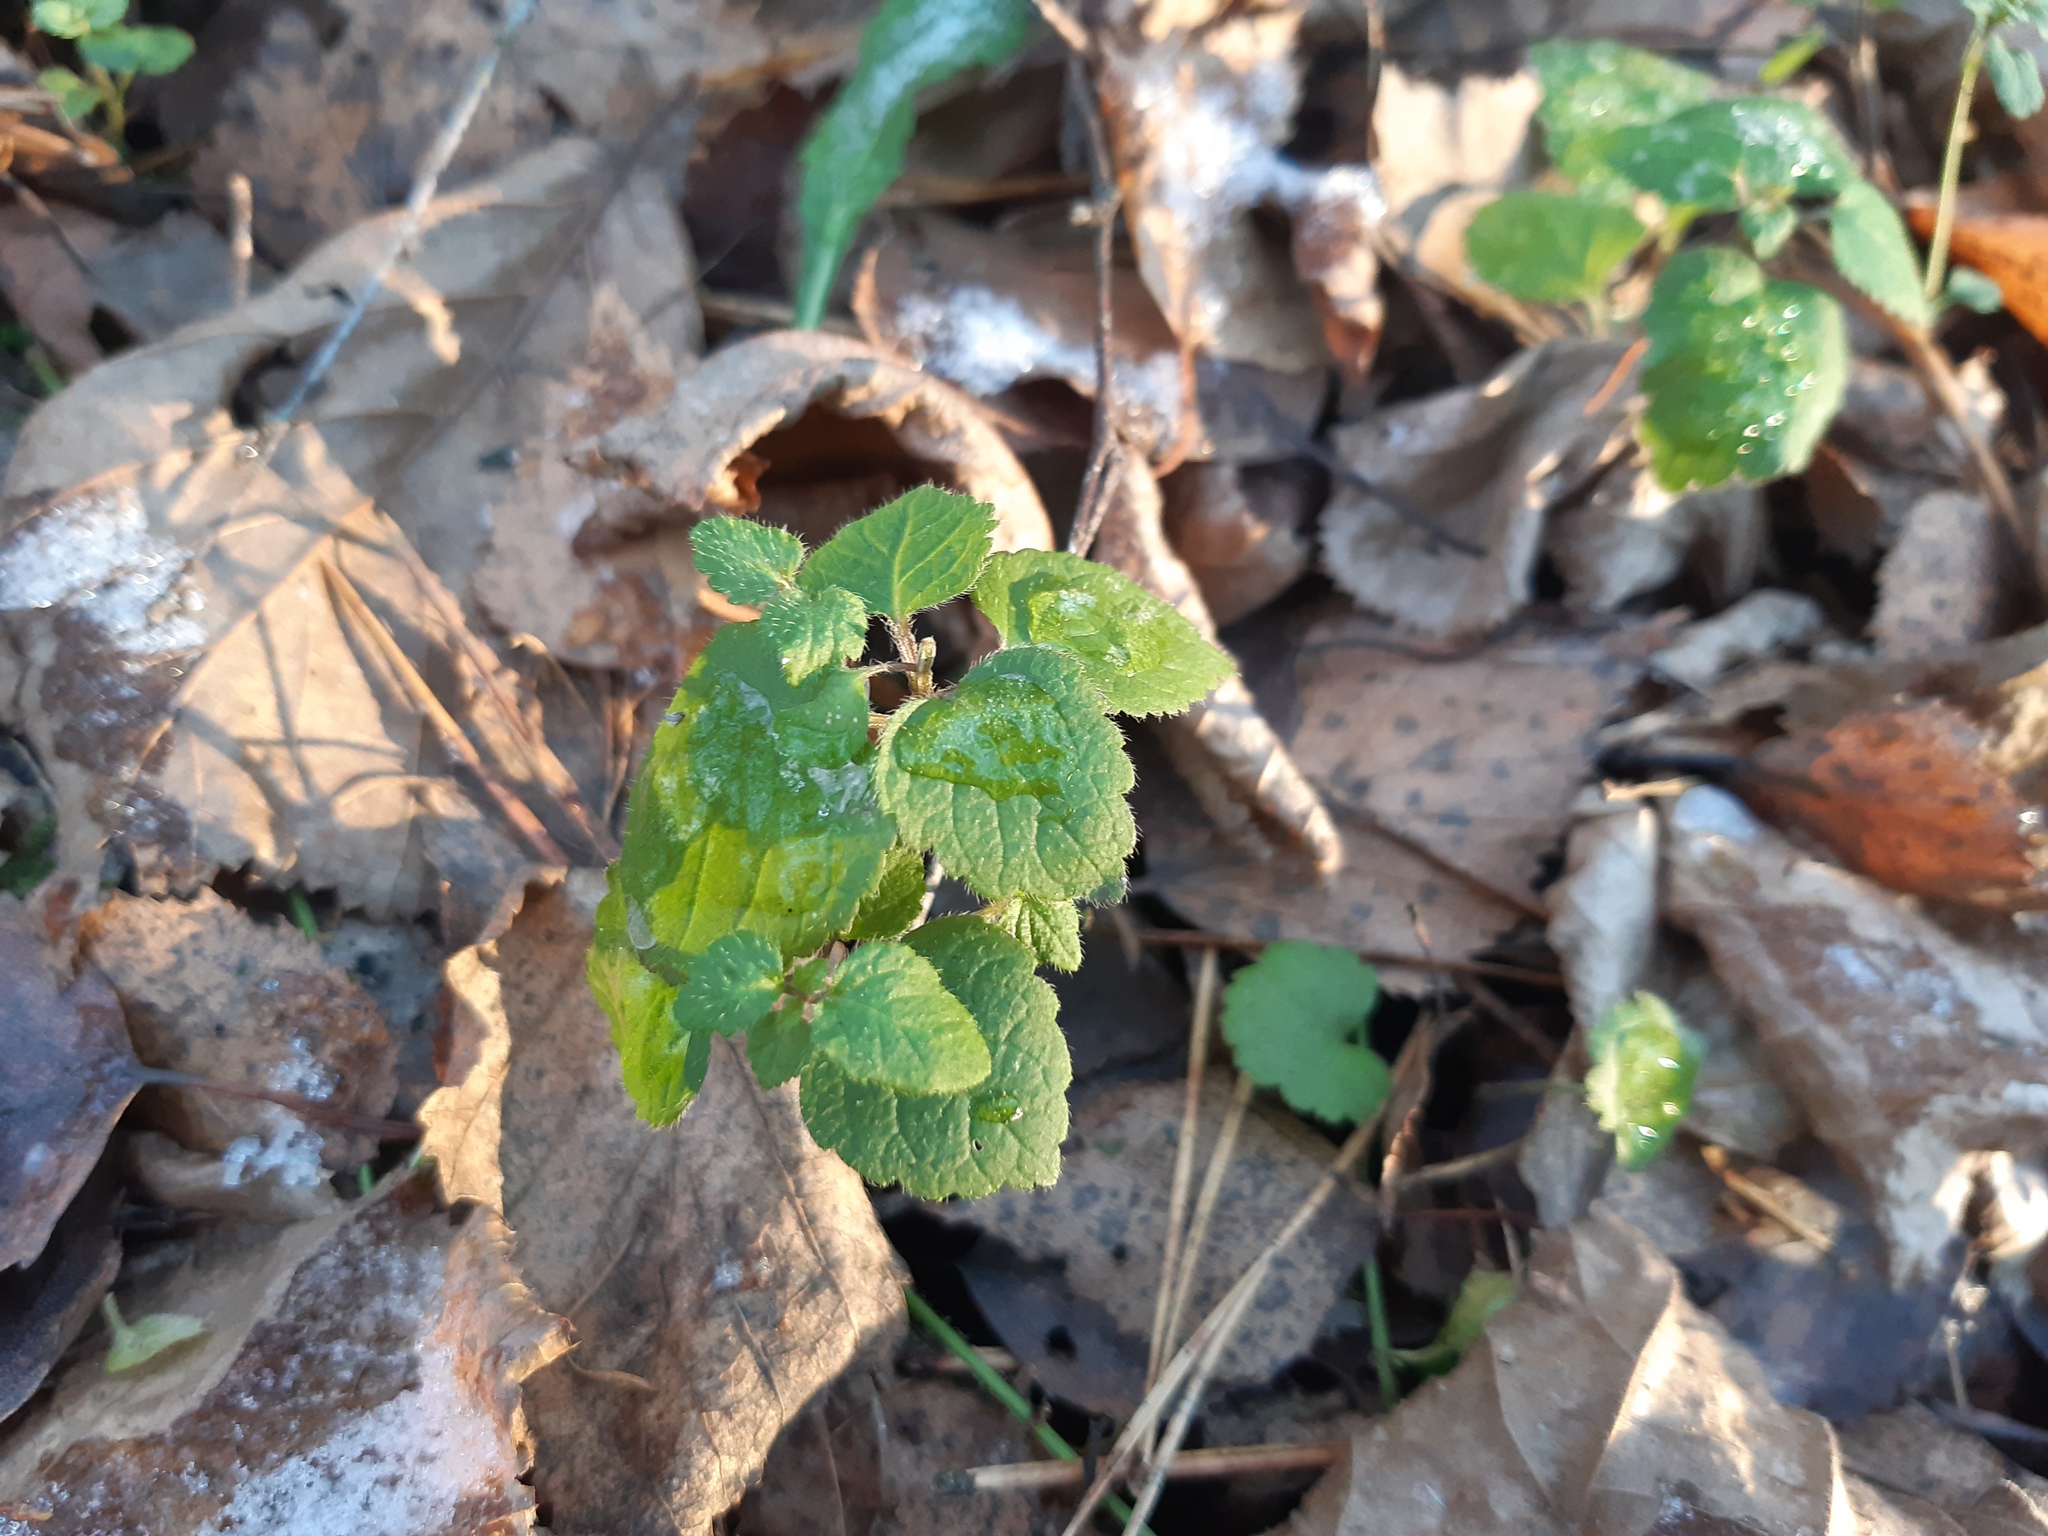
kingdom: Plantae
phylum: Tracheophyta
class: Magnoliopsida
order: Lamiales
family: Lamiaceae
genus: Lamium
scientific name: Lamium galeobdolon
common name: Yellow archangel
